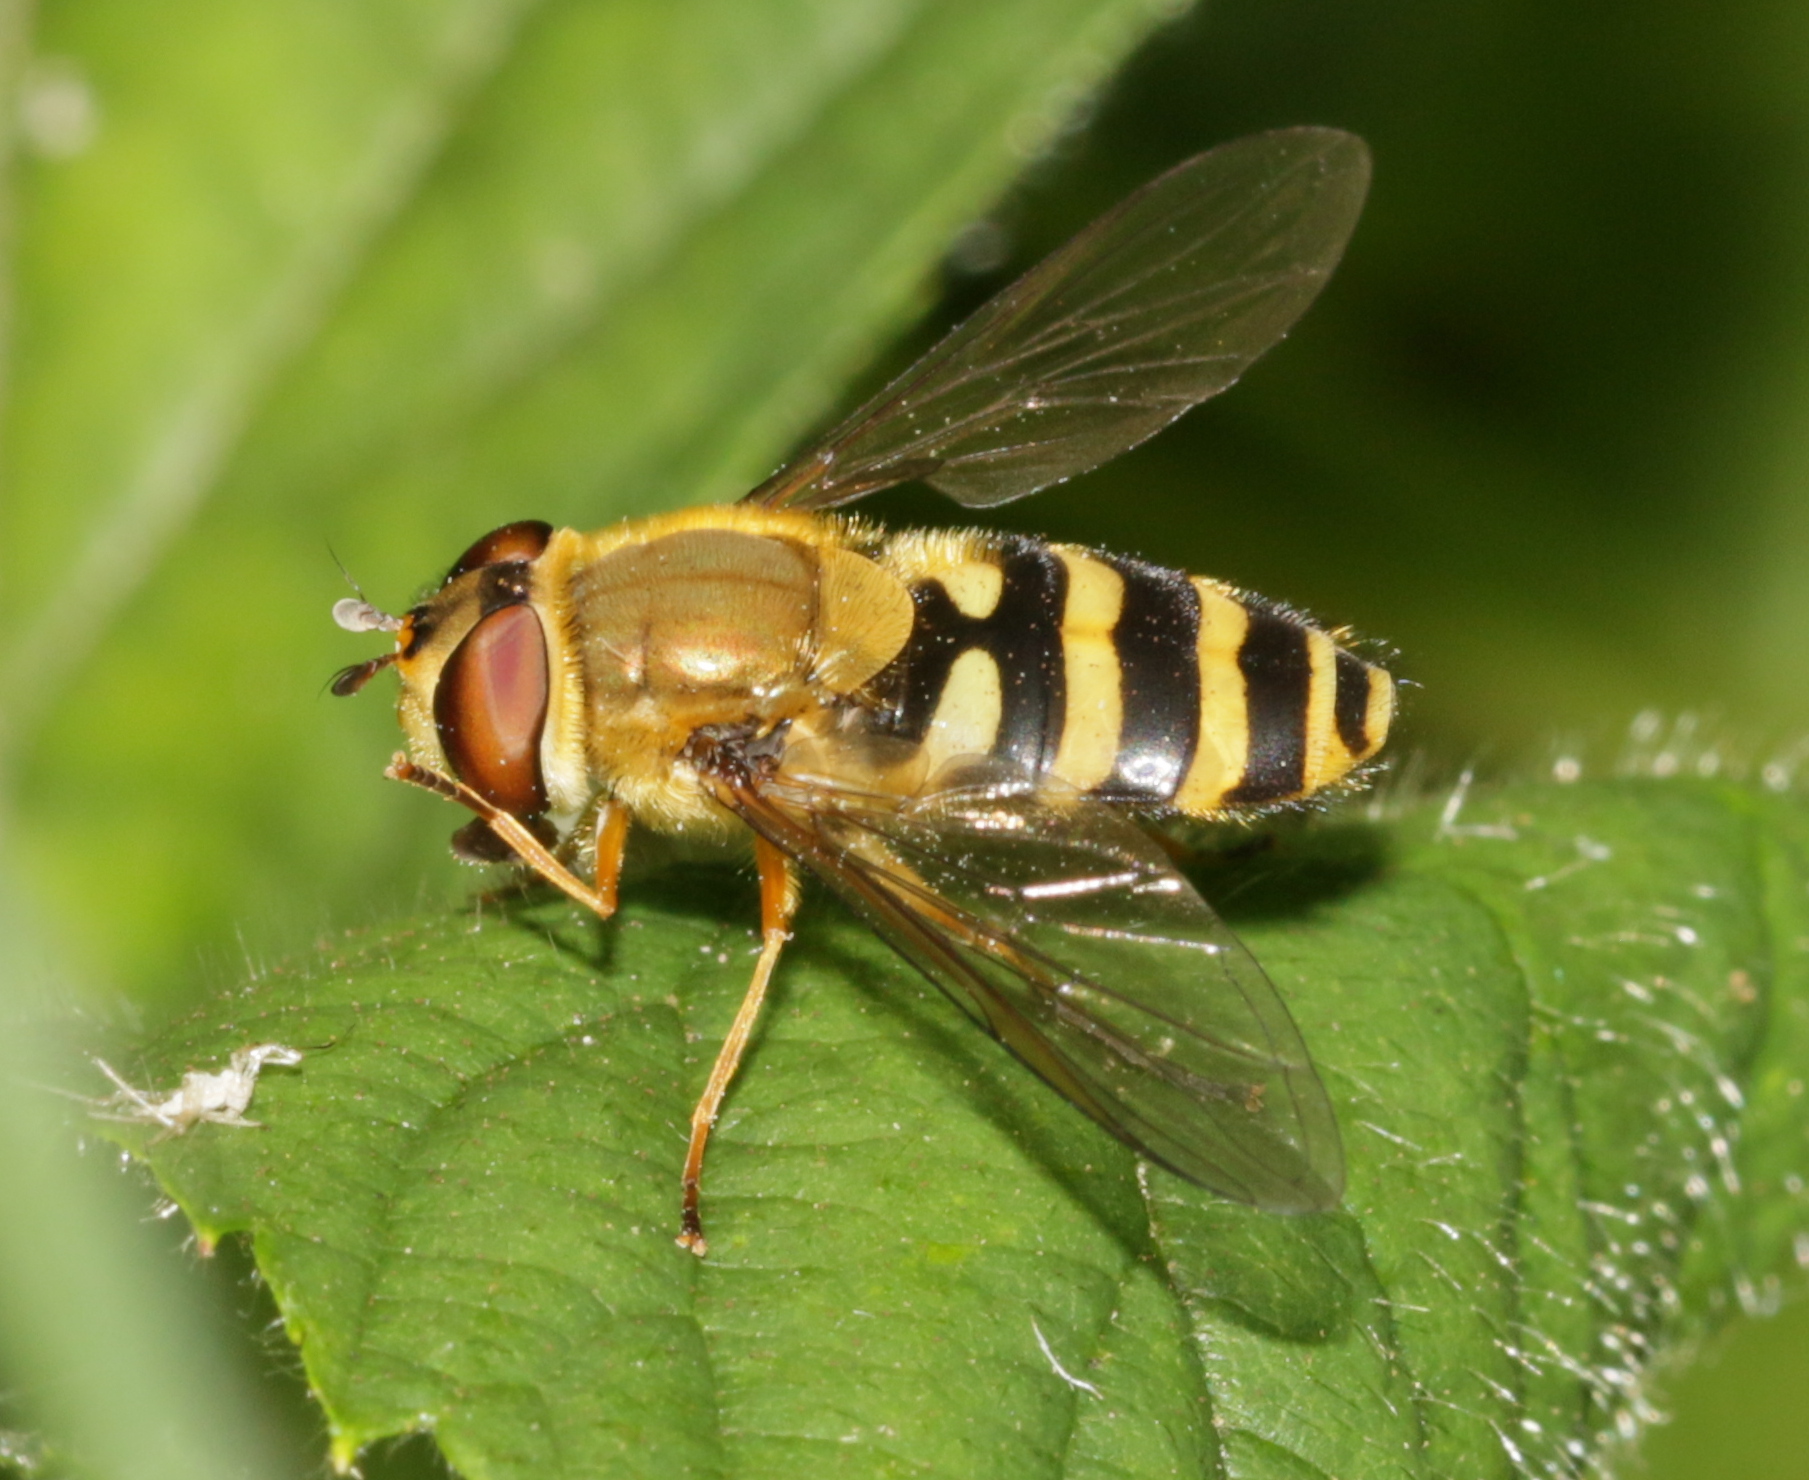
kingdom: Animalia
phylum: Arthropoda
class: Insecta
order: Diptera
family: Syrphidae
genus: Syrphus
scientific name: Syrphus ribesii
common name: Common flower fly
